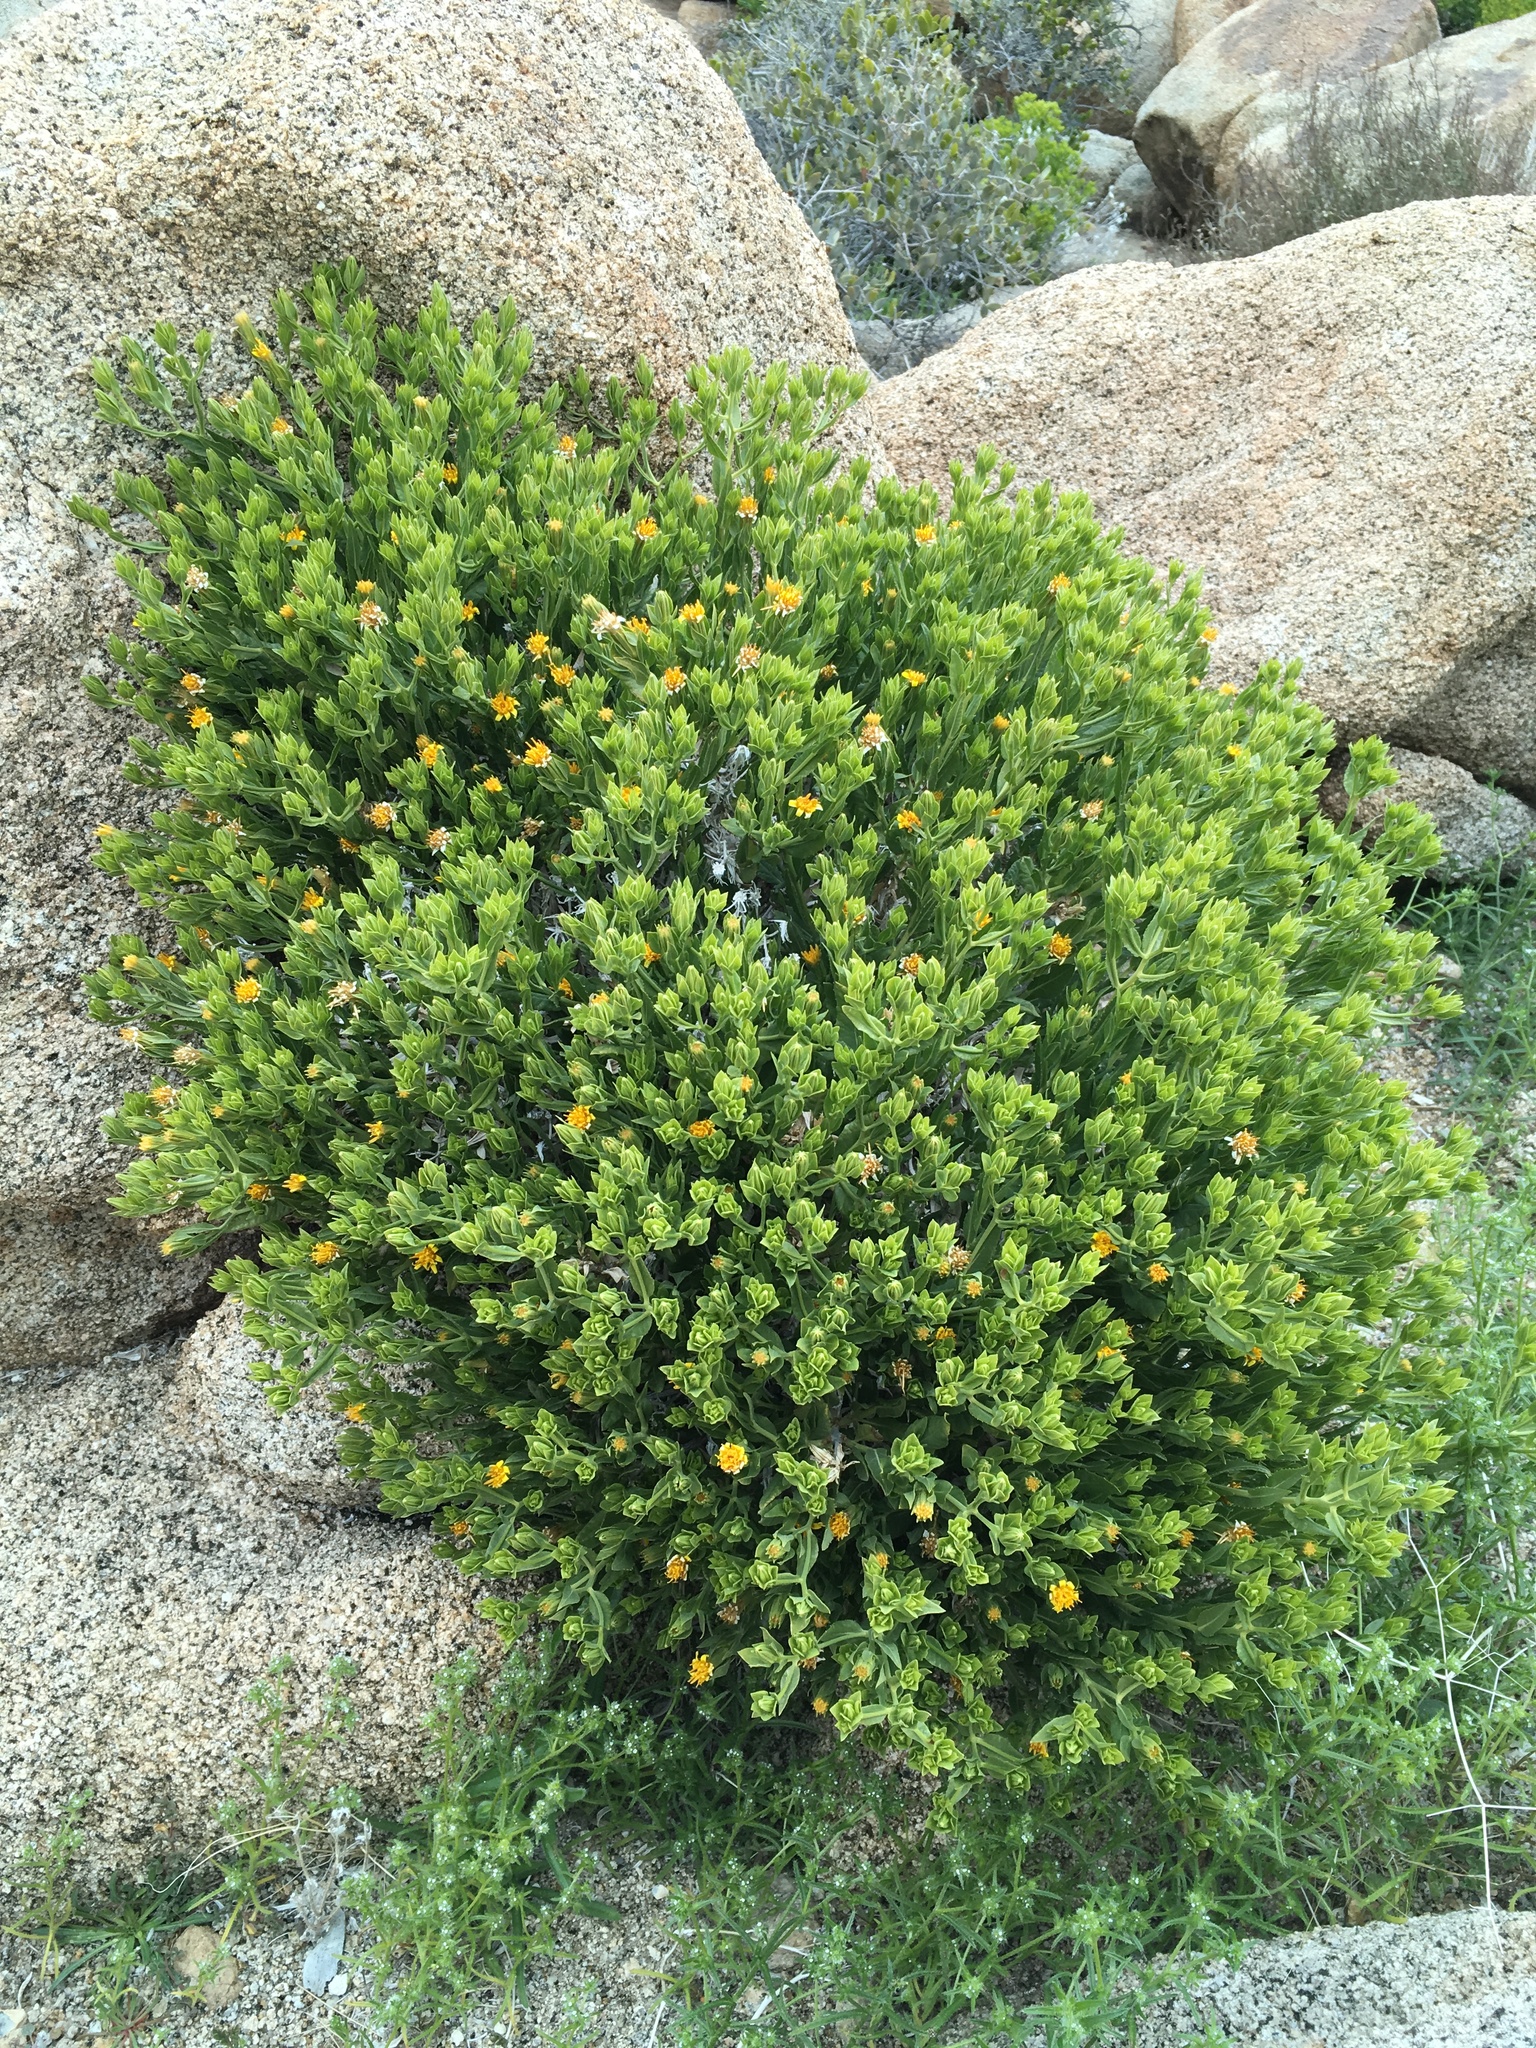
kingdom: Plantae
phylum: Tracheophyta
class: Magnoliopsida
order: Asterales
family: Asteraceae
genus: Trixis
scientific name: Trixis californica
